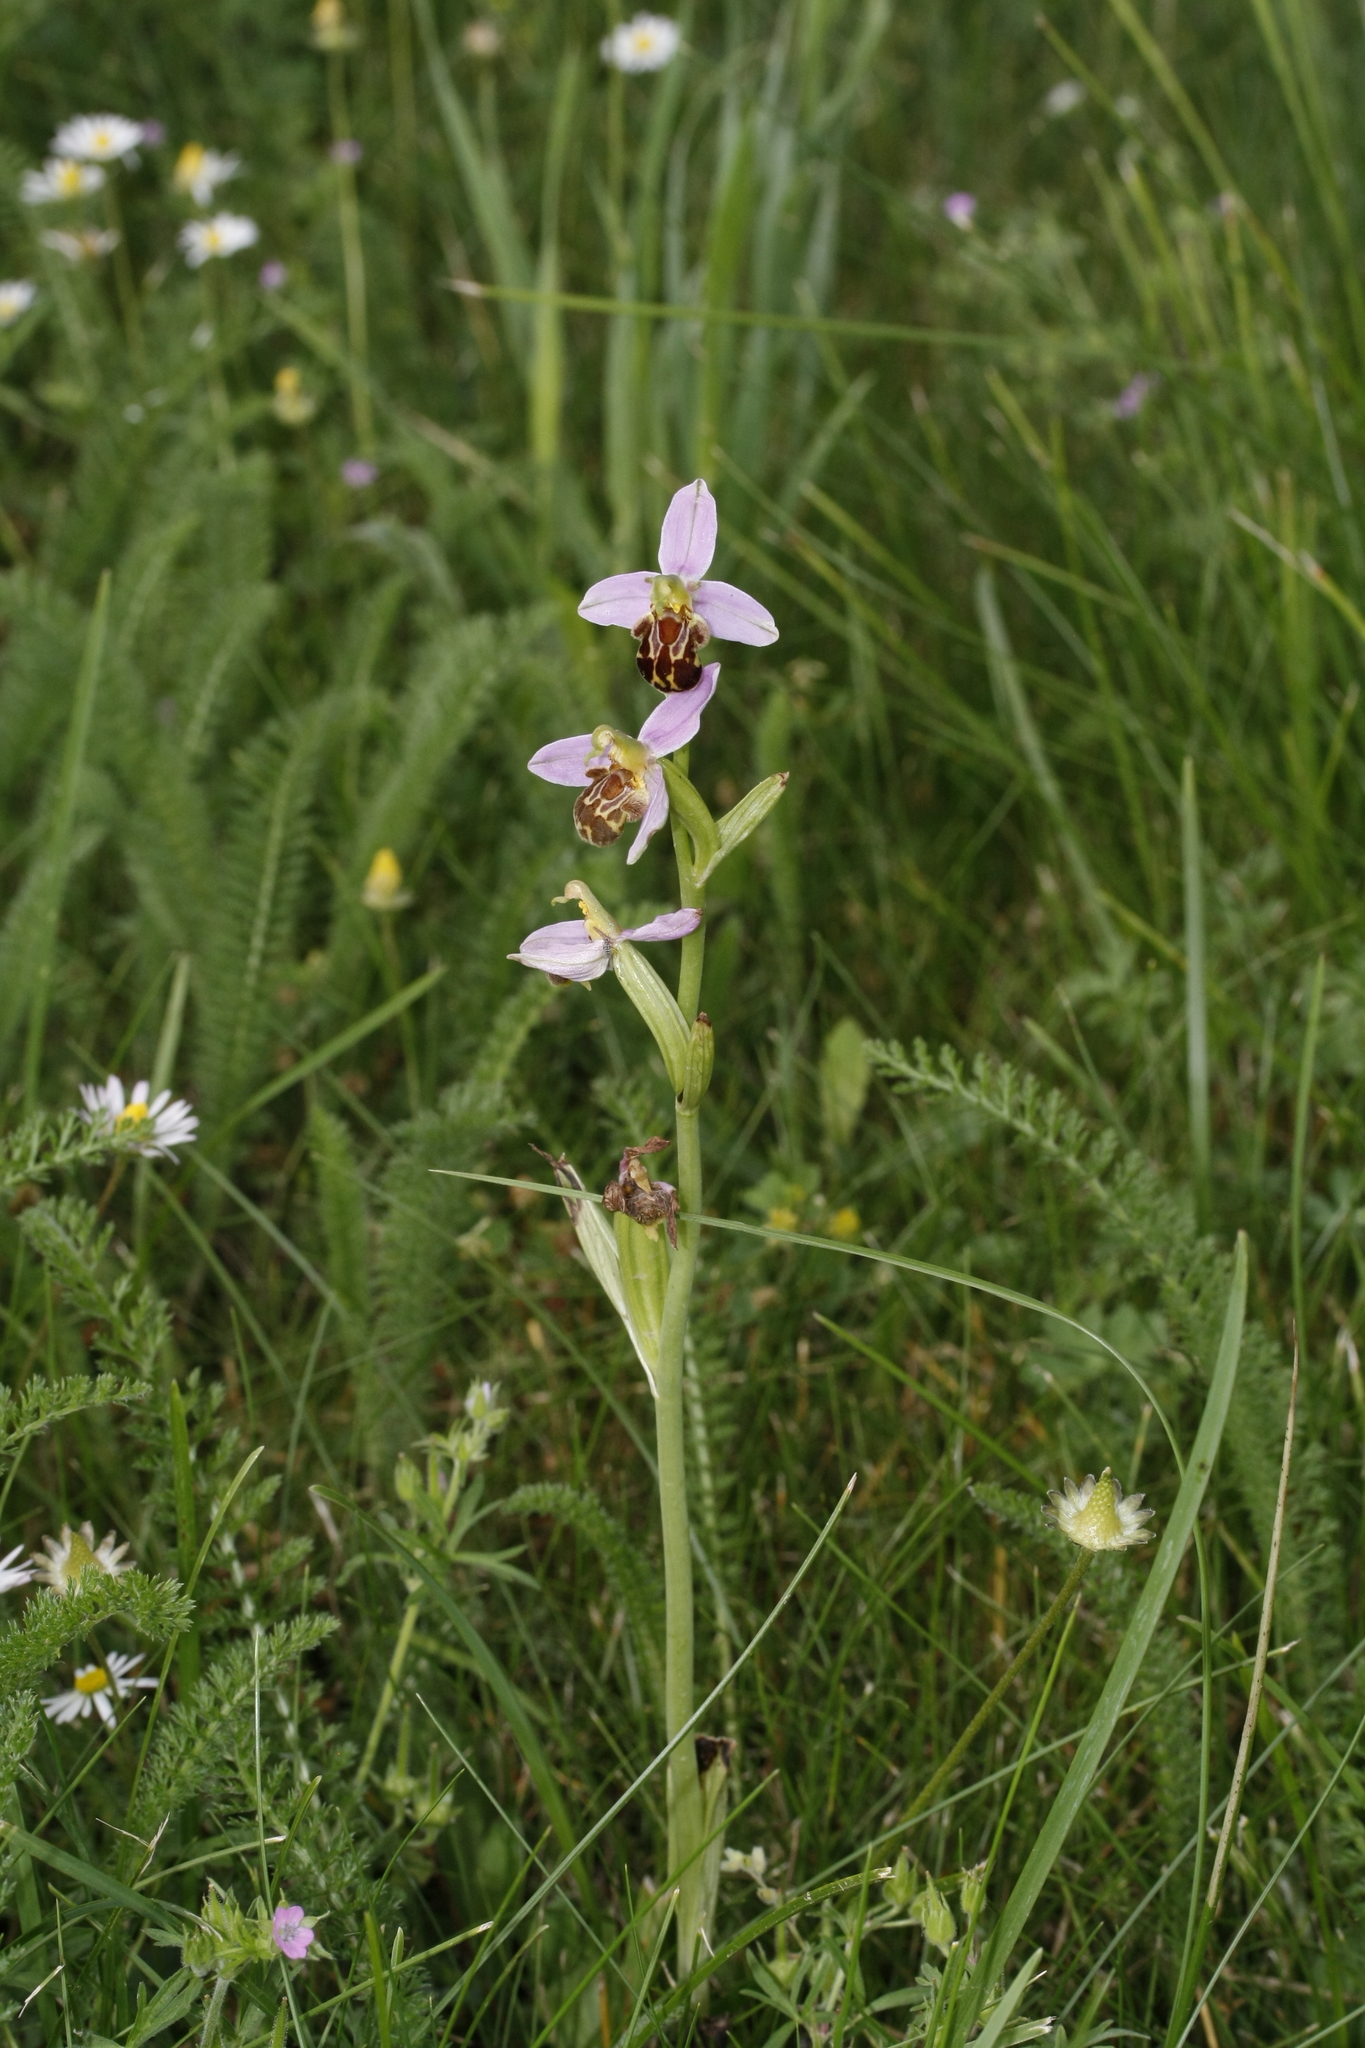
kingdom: Plantae
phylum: Tracheophyta
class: Liliopsida
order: Asparagales
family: Orchidaceae
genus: Ophrys
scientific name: Ophrys apifera
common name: Bee orchid
